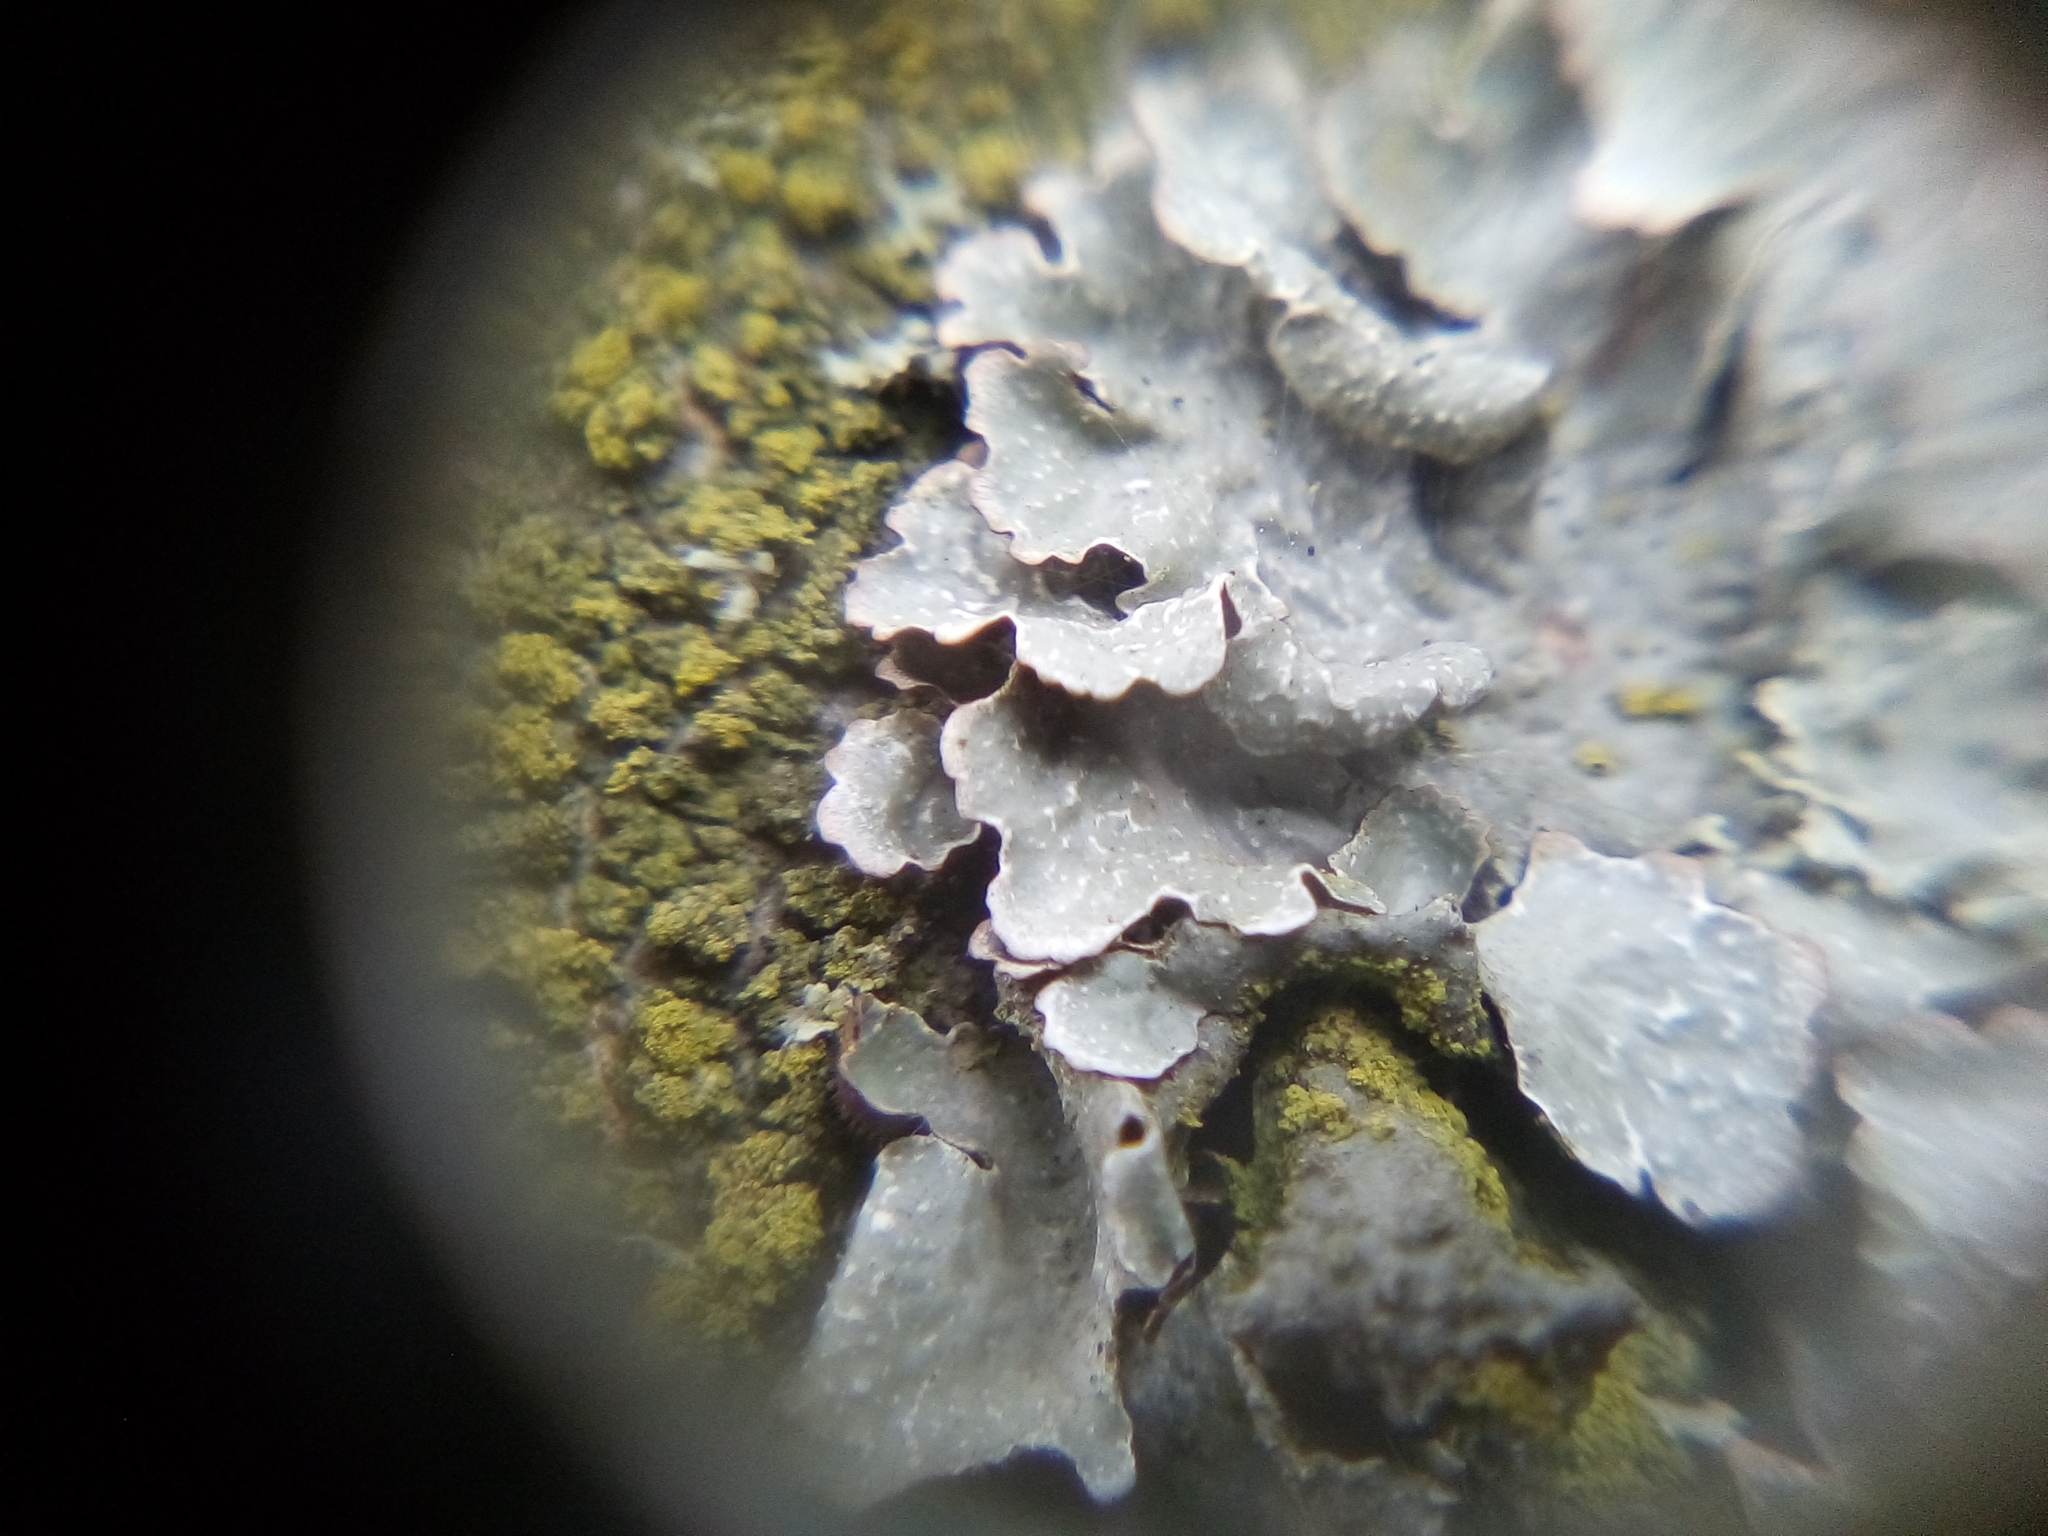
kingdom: Fungi
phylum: Ascomycota
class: Lecanoromycetes
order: Lecanorales
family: Parmeliaceae
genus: Parmelia
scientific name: Parmelia sulcata
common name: Netted shield lichen
